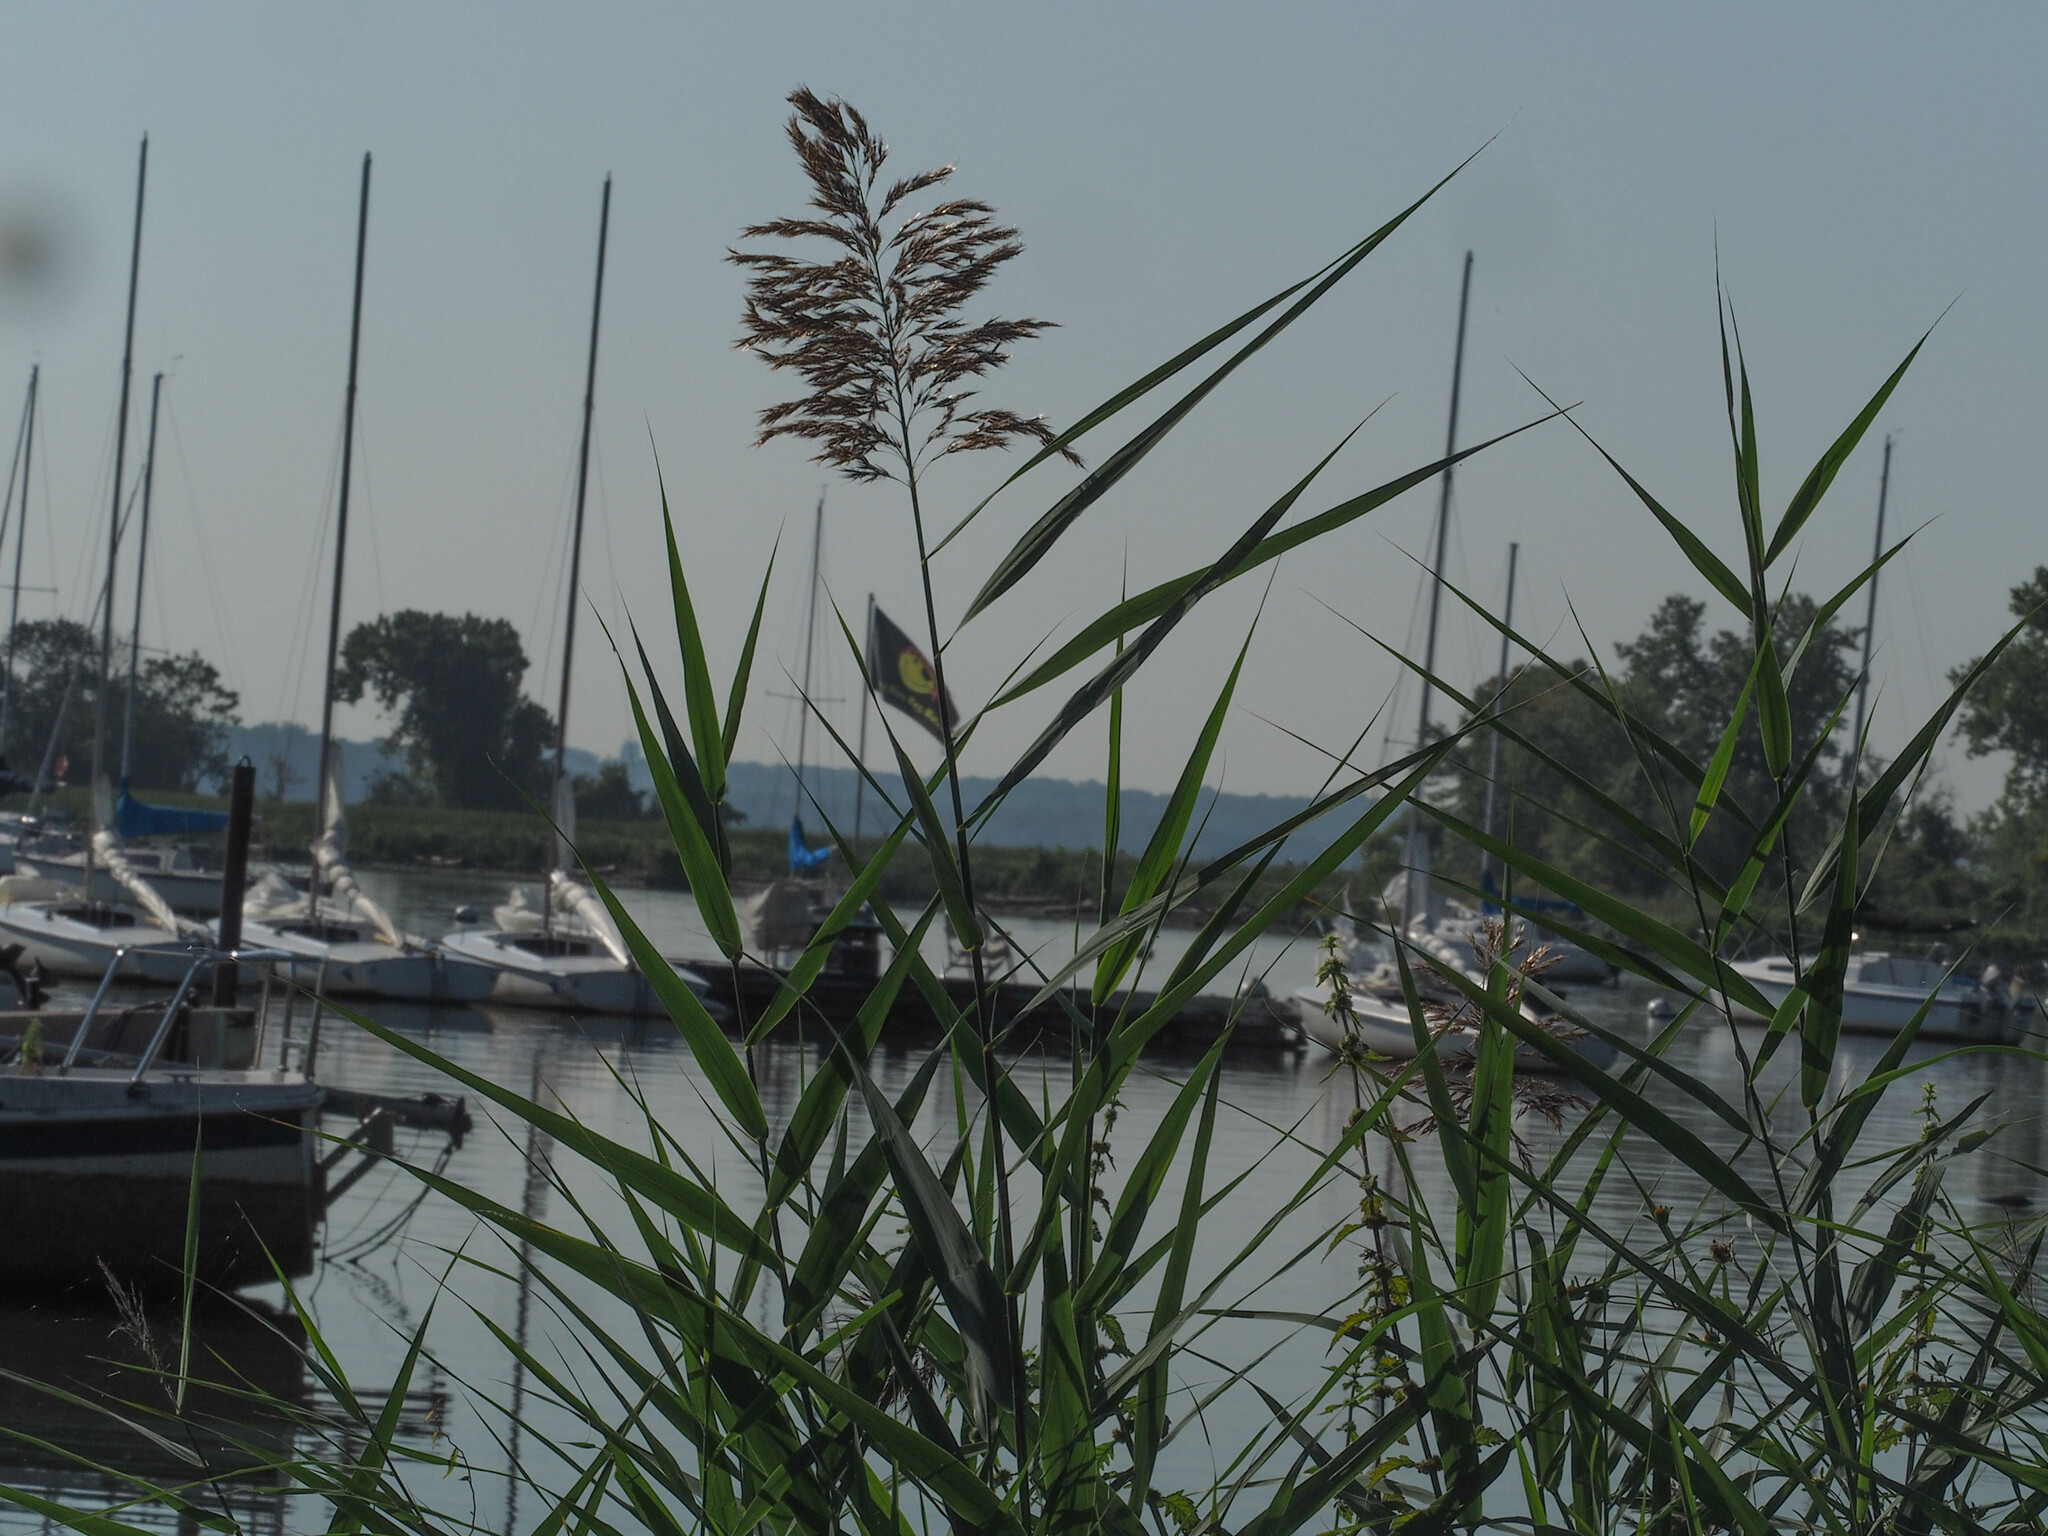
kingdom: Plantae
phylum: Tracheophyta
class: Liliopsida
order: Poales
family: Poaceae
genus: Phragmites
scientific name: Phragmites australis
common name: Common reed
